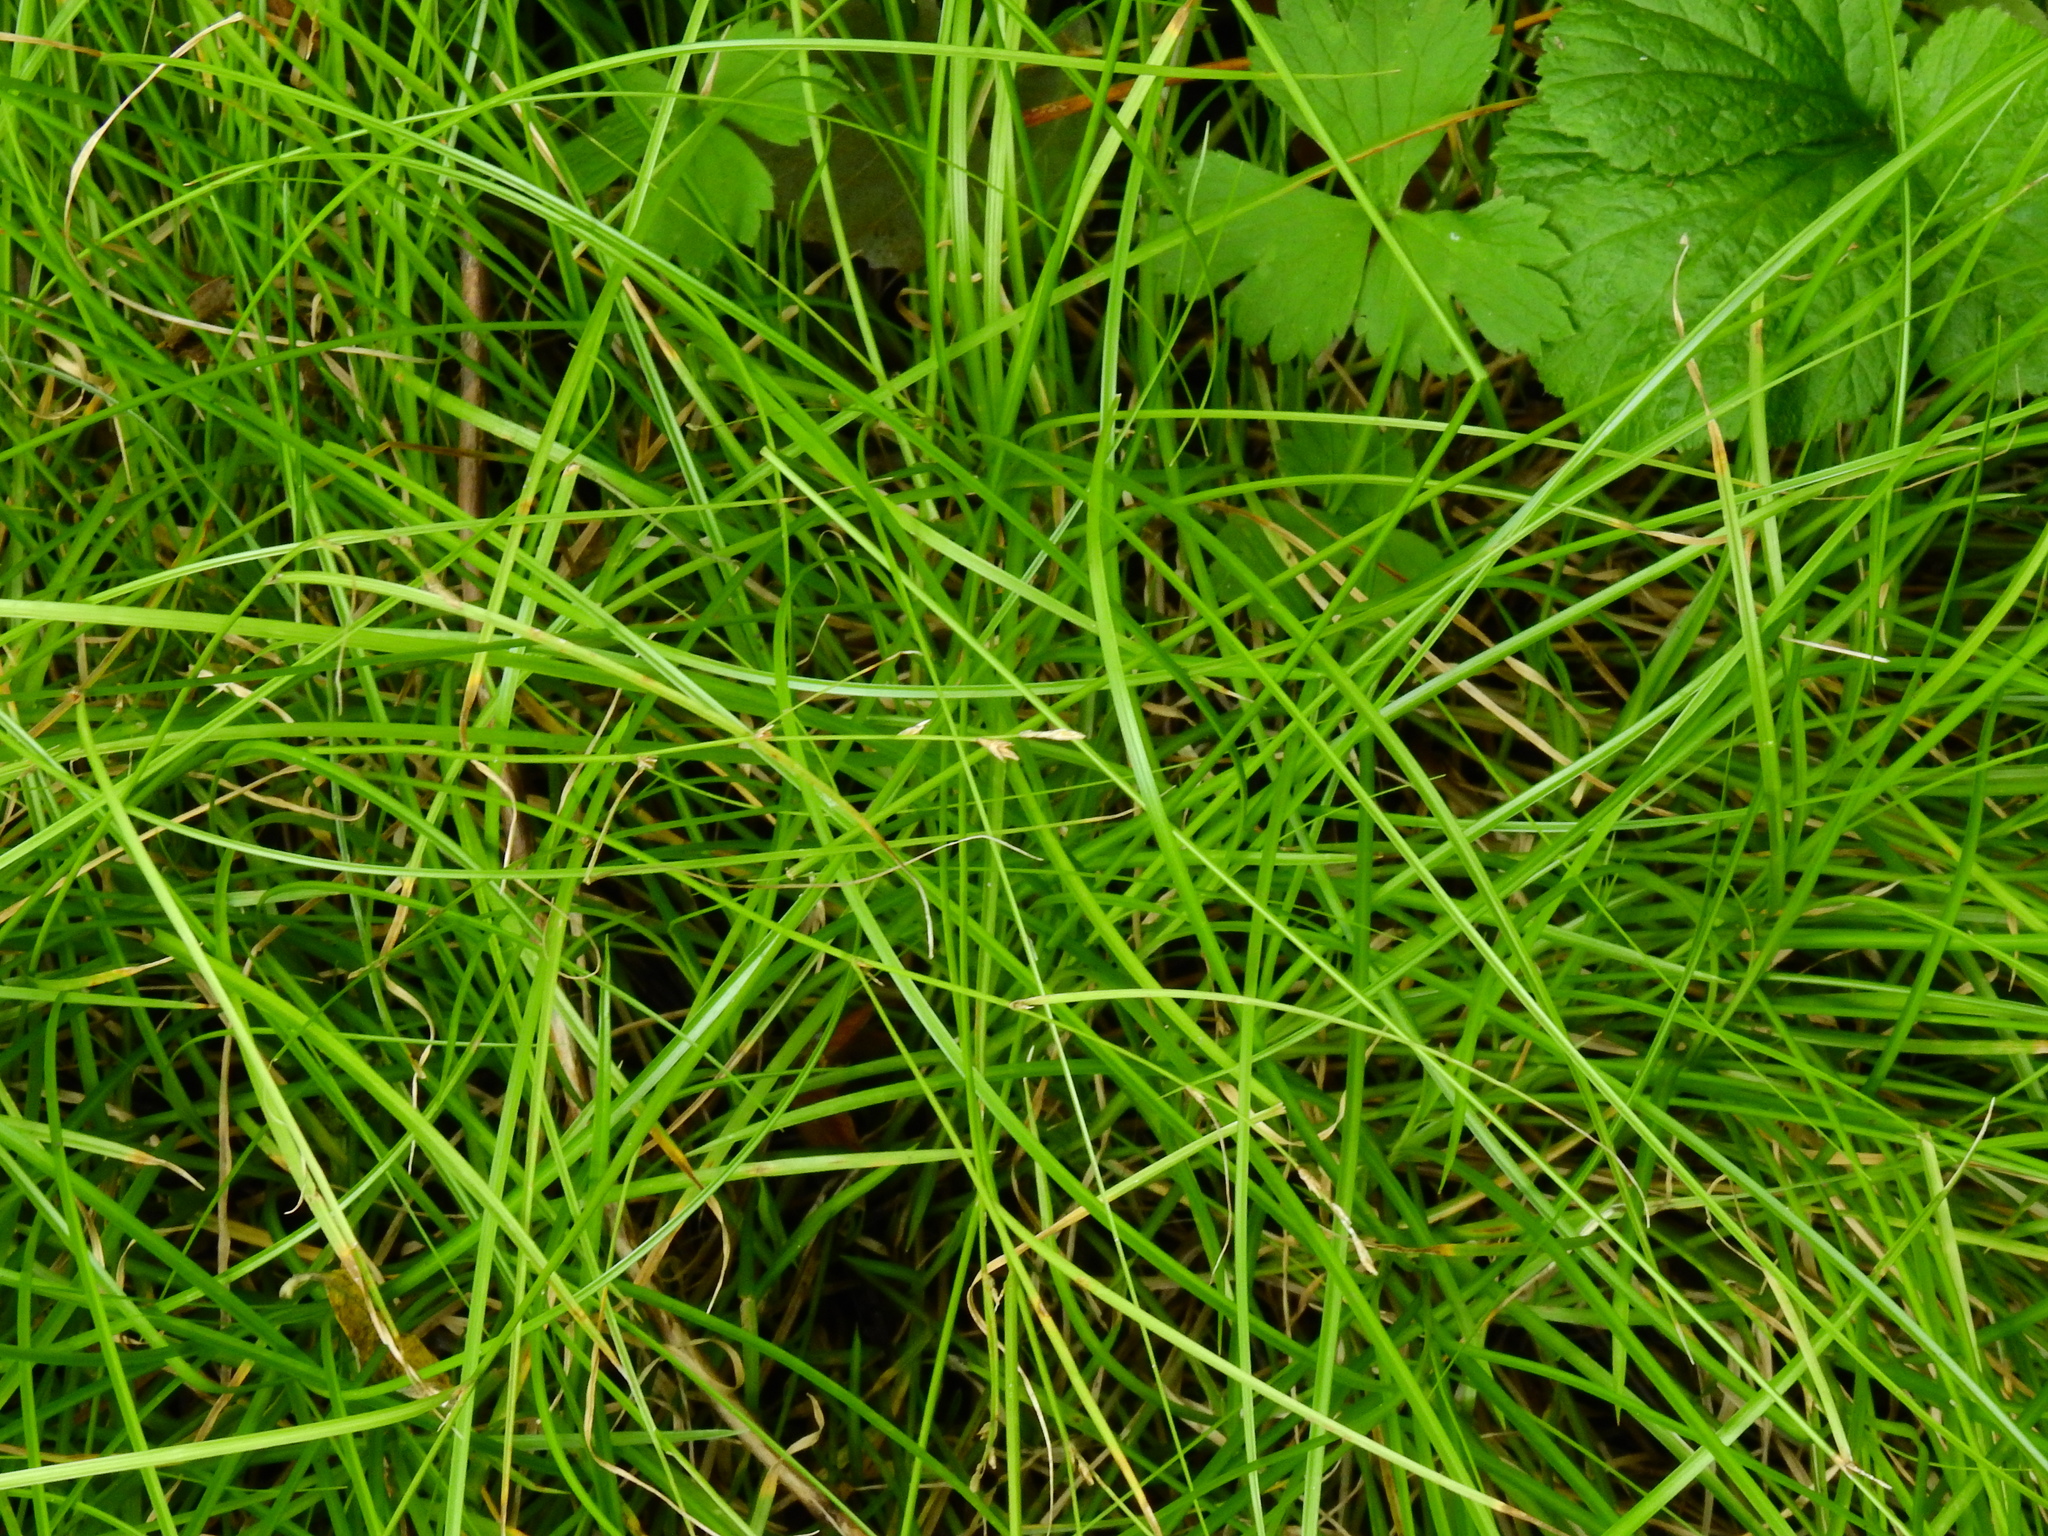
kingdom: Plantae
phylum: Tracheophyta
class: Liliopsida
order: Poales
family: Cyperaceae
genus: Carex
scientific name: Carex remota
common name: Remote sedge
